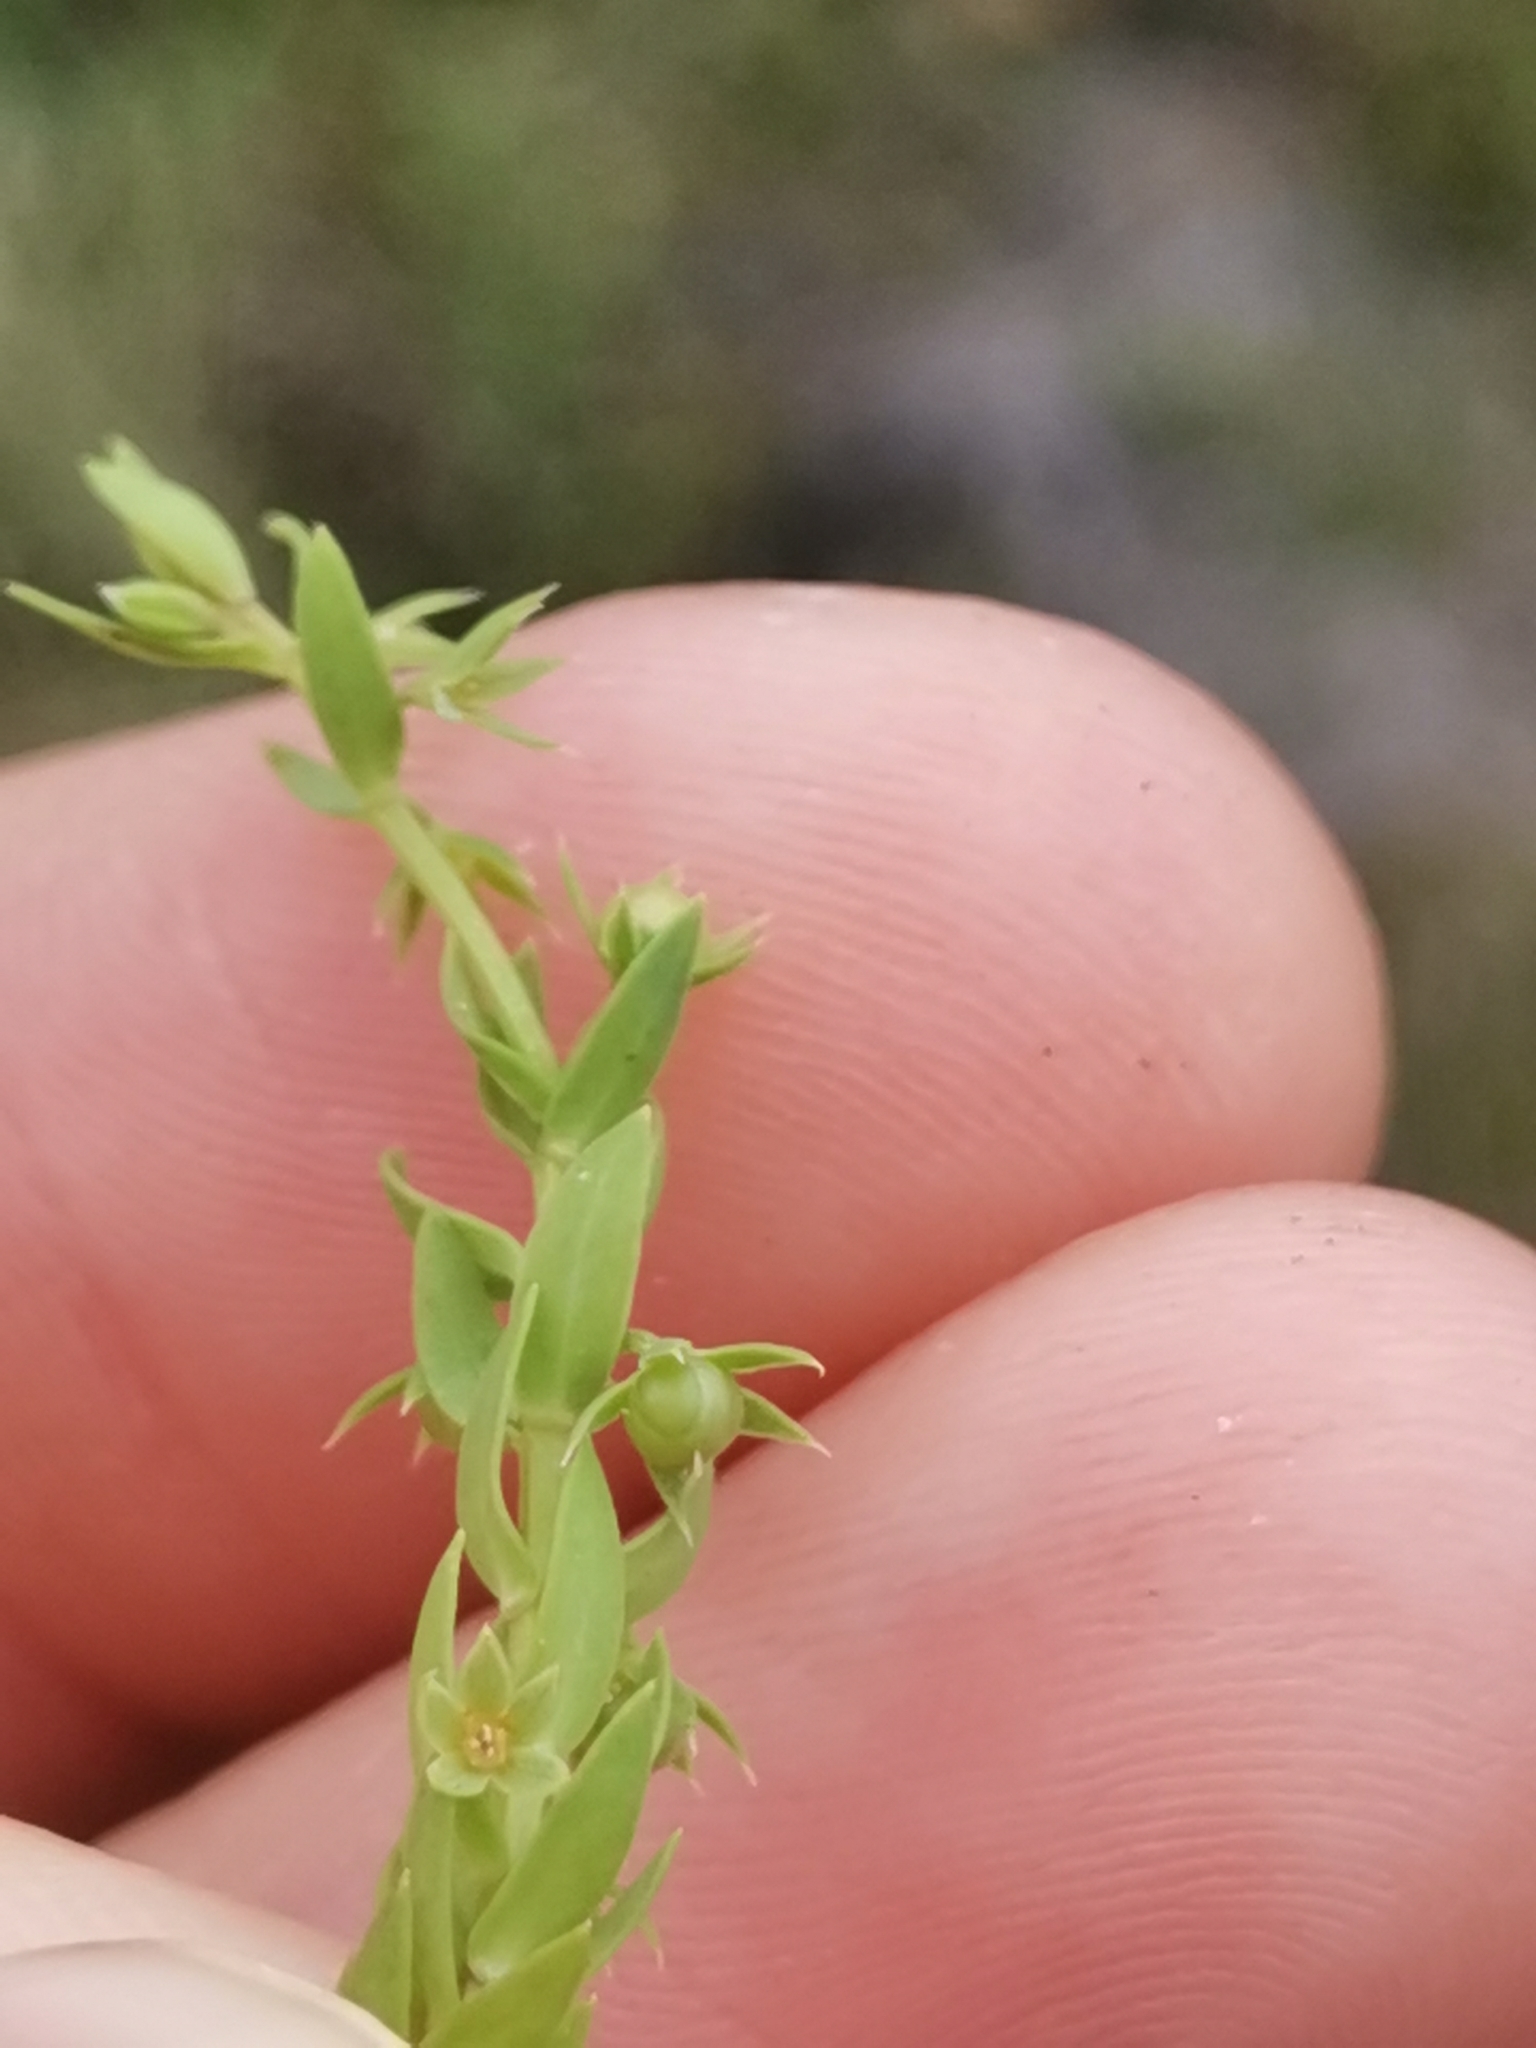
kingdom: Plantae
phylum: Tracheophyta
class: Magnoliopsida
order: Ericales
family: Primulaceae
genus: Lysimachia
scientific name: Lysimachia linum-stellatum
